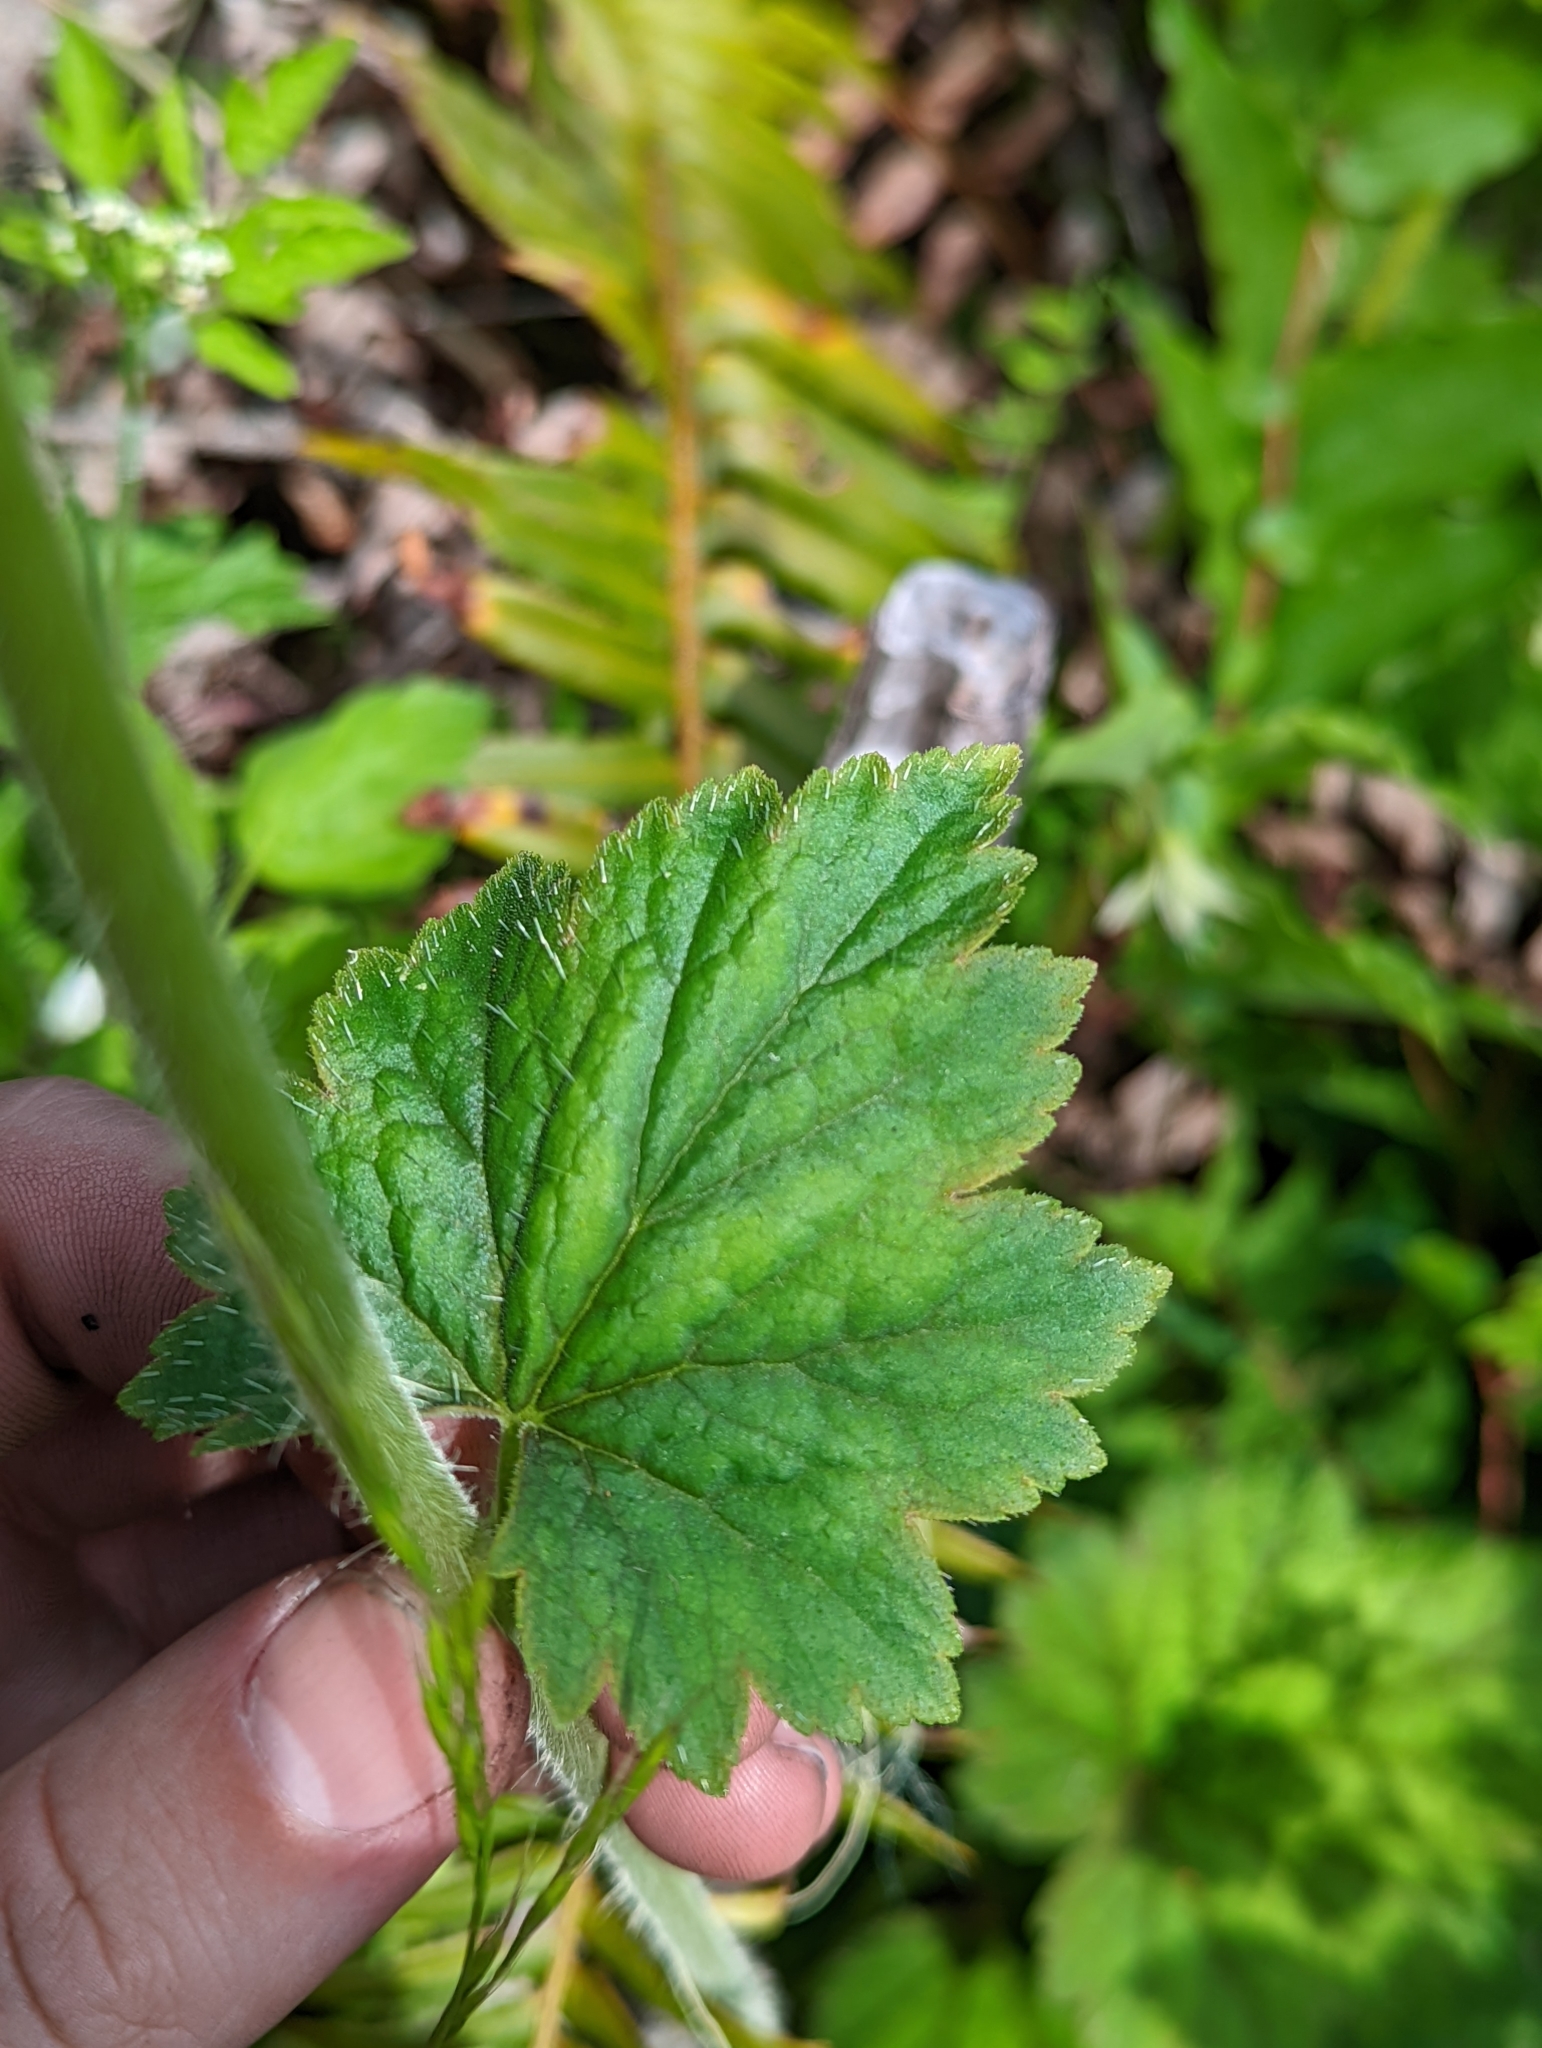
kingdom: Plantae
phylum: Tracheophyta
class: Magnoliopsida
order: Saxifragales
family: Saxifragaceae
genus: Tellima
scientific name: Tellima grandiflora
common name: Fringecups
